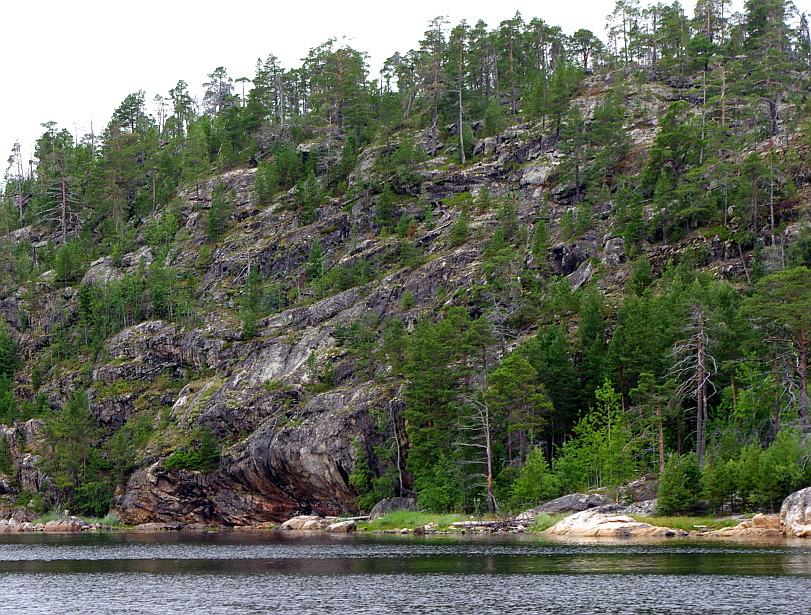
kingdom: Plantae
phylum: Tracheophyta
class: Pinopsida
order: Pinales
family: Pinaceae
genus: Pinus
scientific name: Pinus sylvestris
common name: Scots pine
